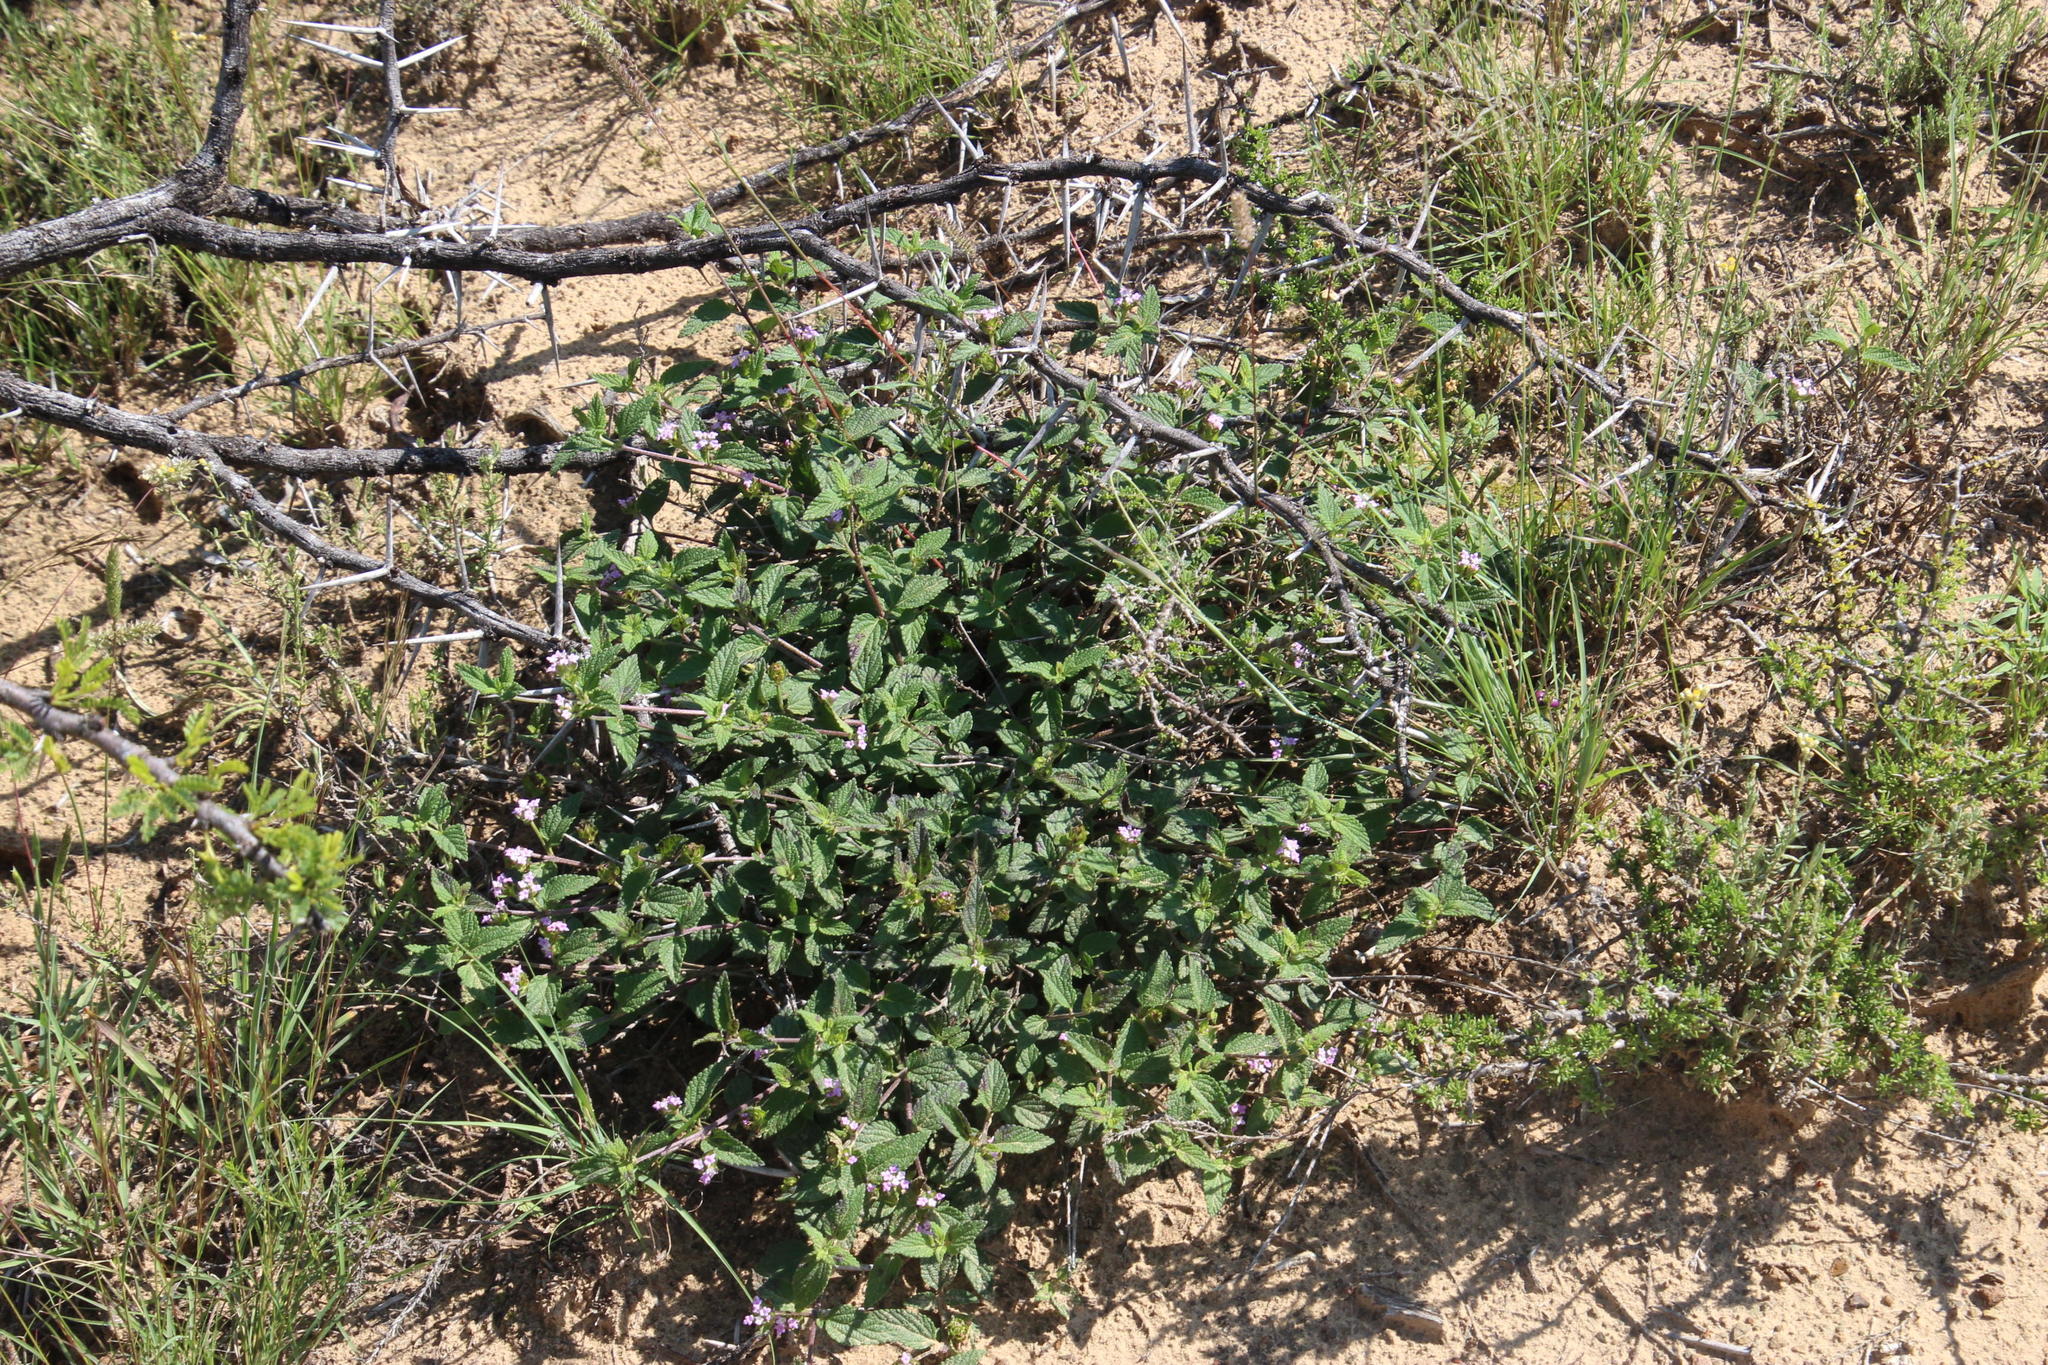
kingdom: Plantae
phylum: Tracheophyta
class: Magnoliopsida
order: Lamiales
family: Verbenaceae
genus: Lantana
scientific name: Lantana rugosa
